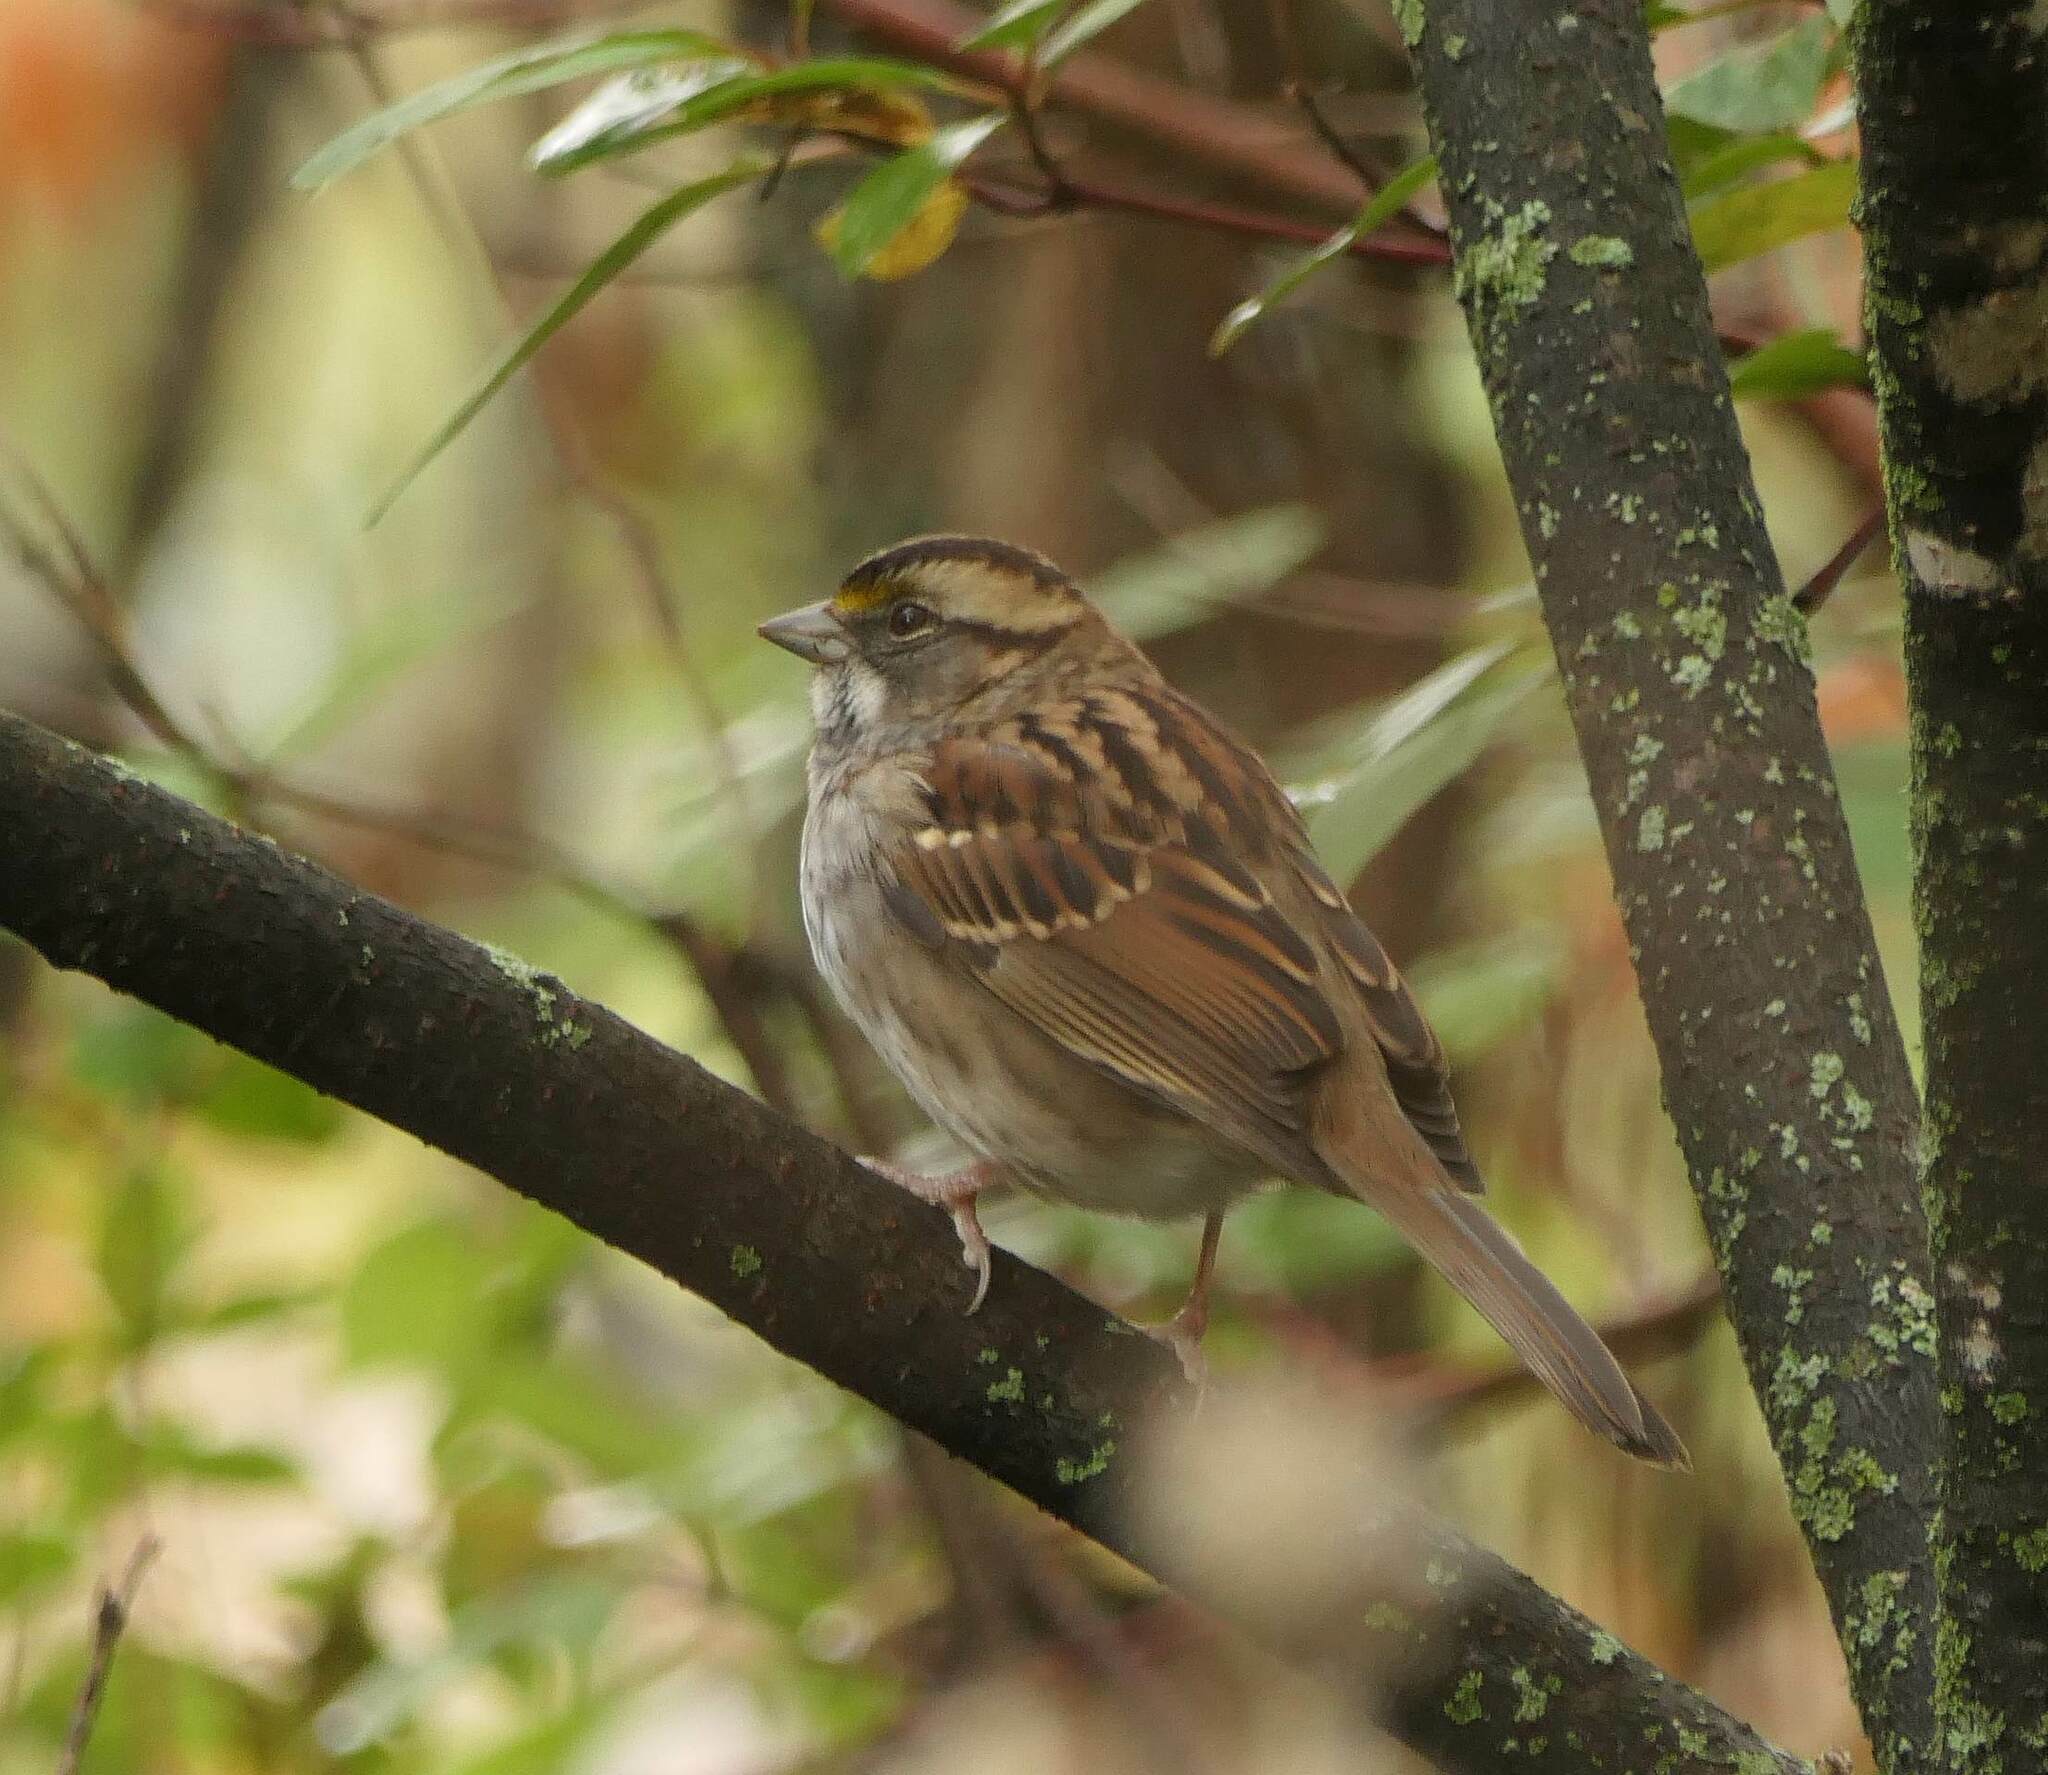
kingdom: Animalia
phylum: Chordata
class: Aves
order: Passeriformes
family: Passerellidae
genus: Zonotrichia
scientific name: Zonotrichia albicollis
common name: White-throated sparrow
